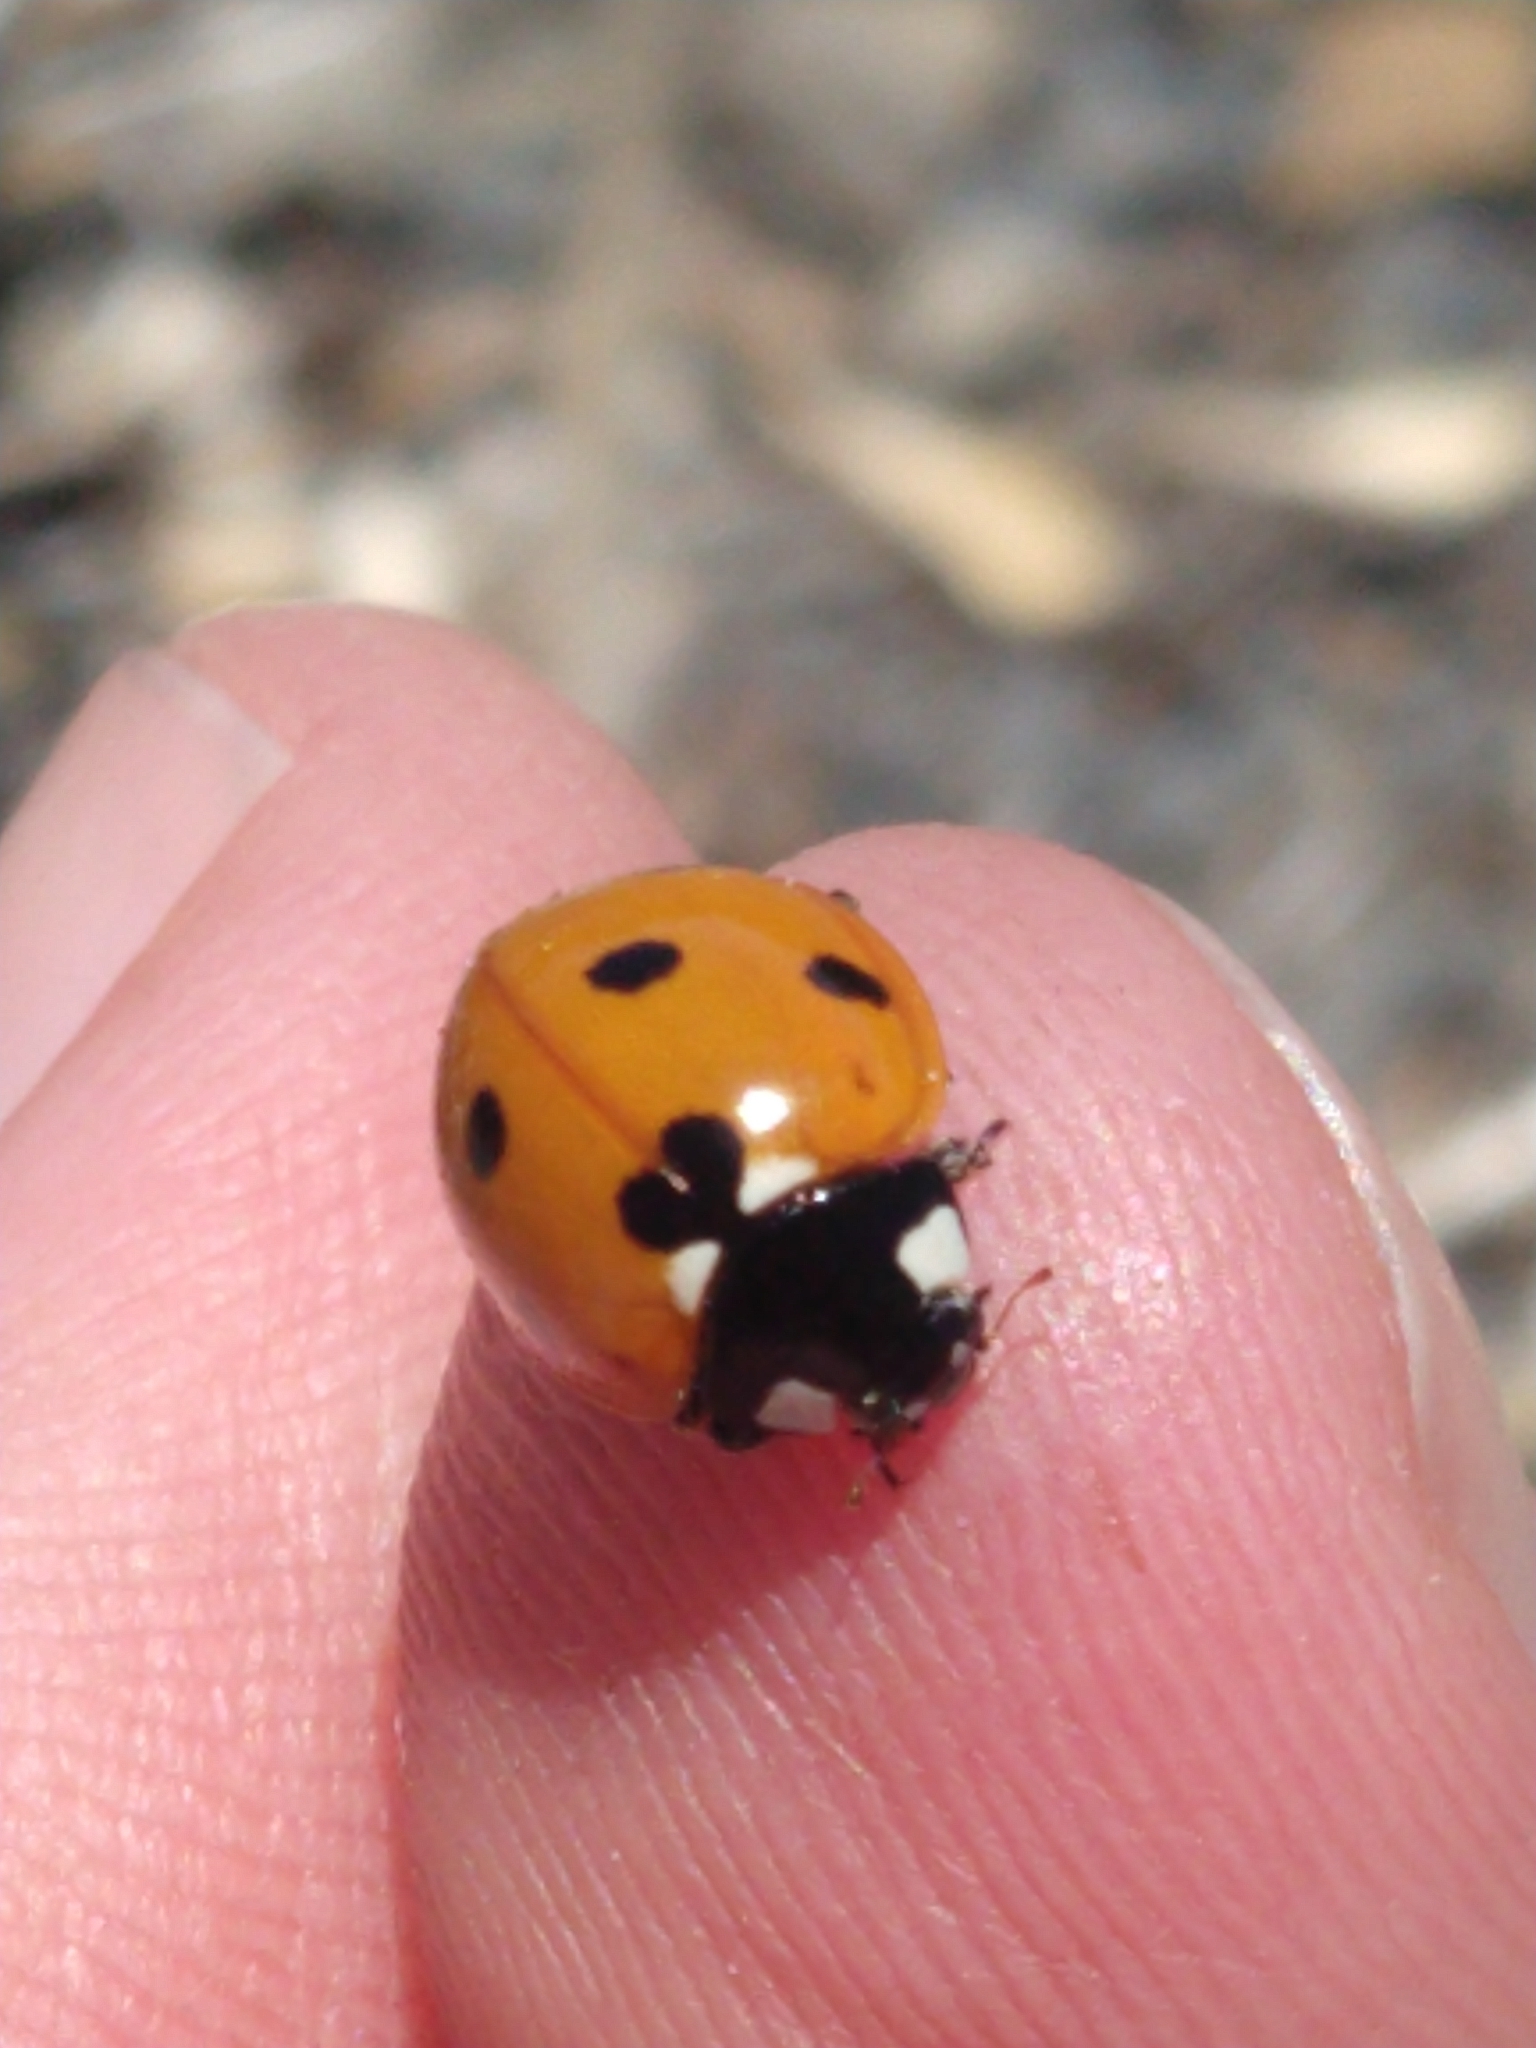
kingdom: Animalia
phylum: Arthropoda
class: Insecta
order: Coleoptera
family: Coccinellidae
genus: Coccinella
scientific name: Coccinella septempunctata
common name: Sevenspotted lady beetle
